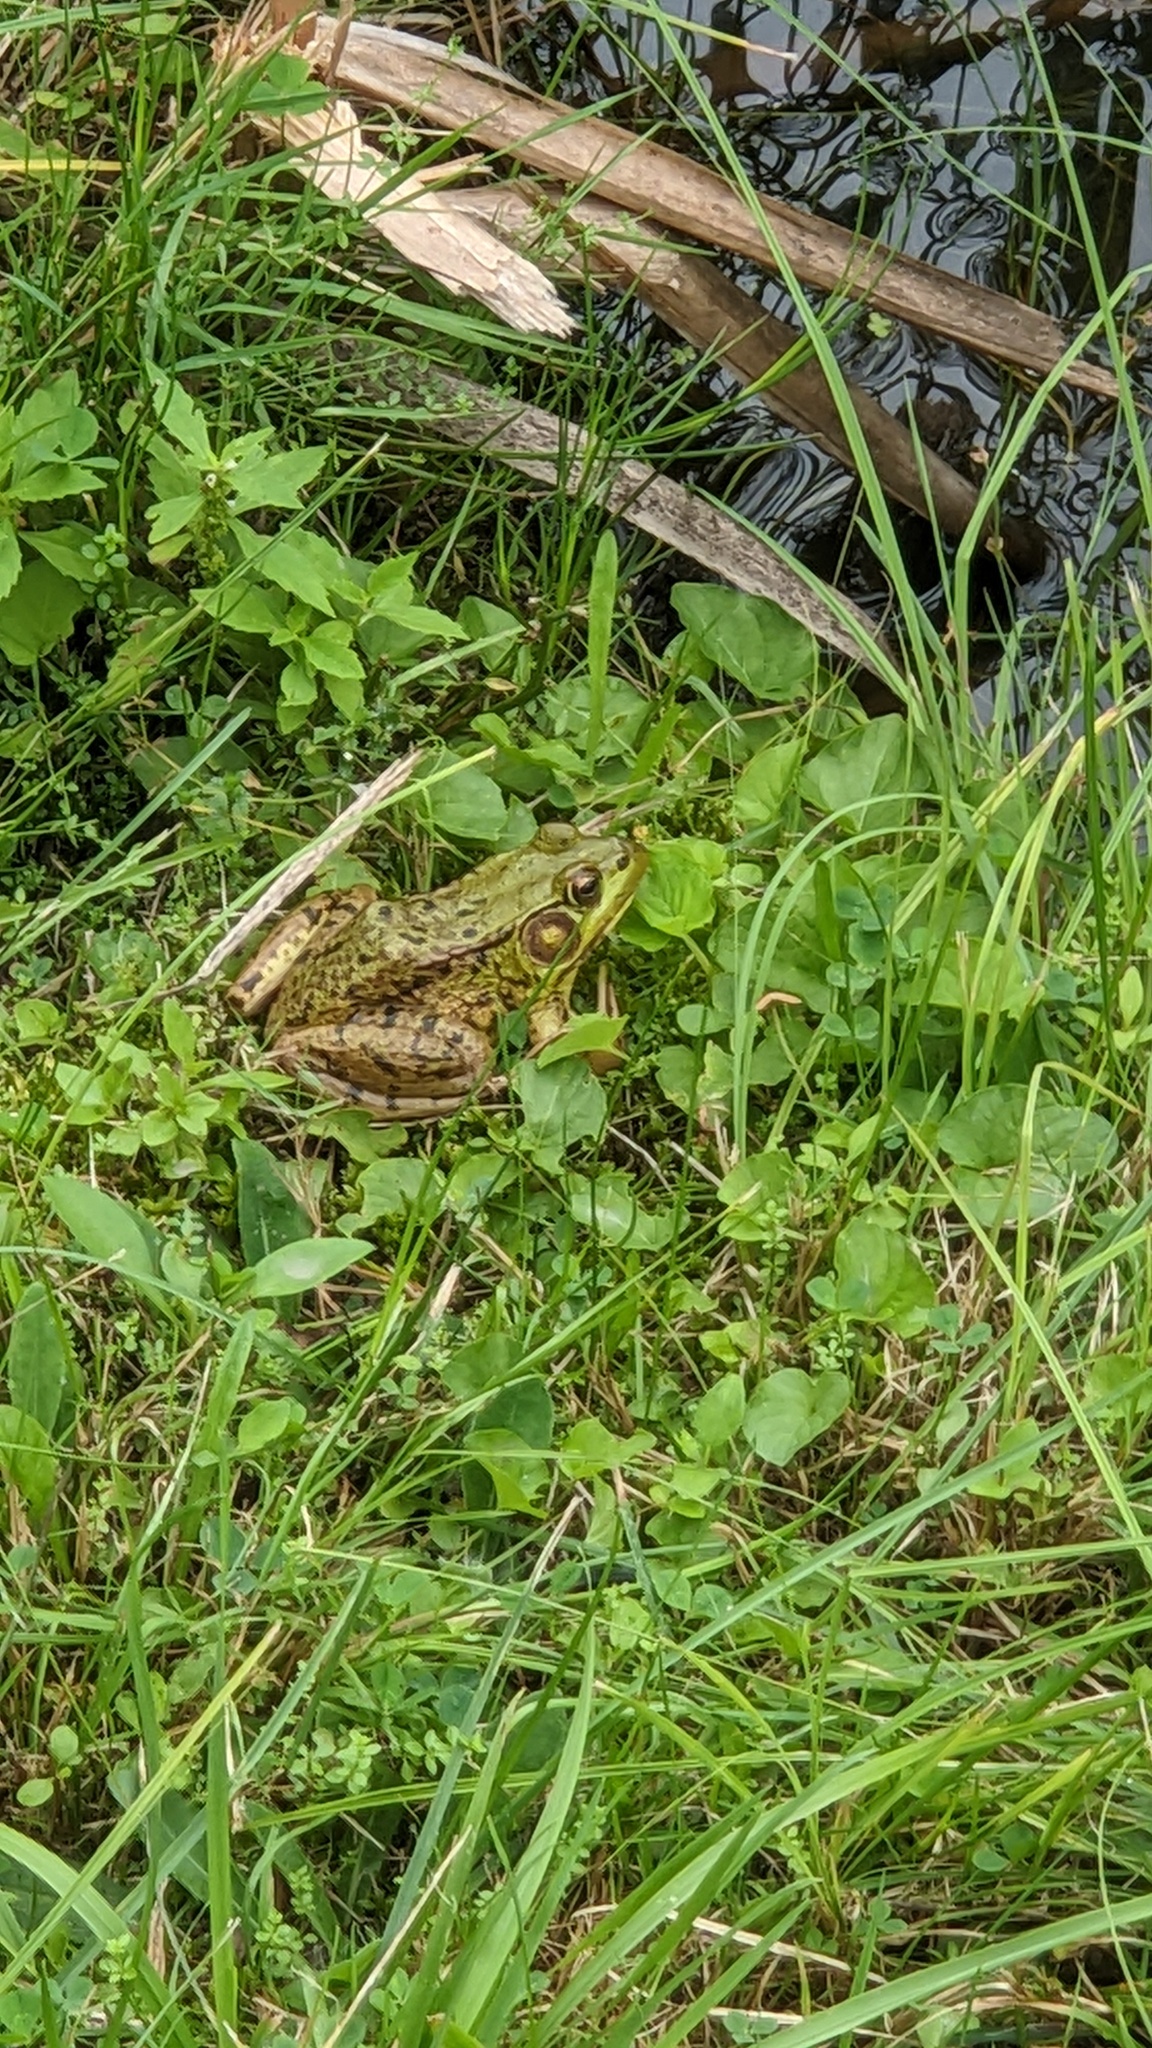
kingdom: Animalia
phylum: Chordata
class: Amphibia
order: Anura
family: Ranidae
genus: Lithobates
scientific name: Lithobates clamitans
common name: Green frog
